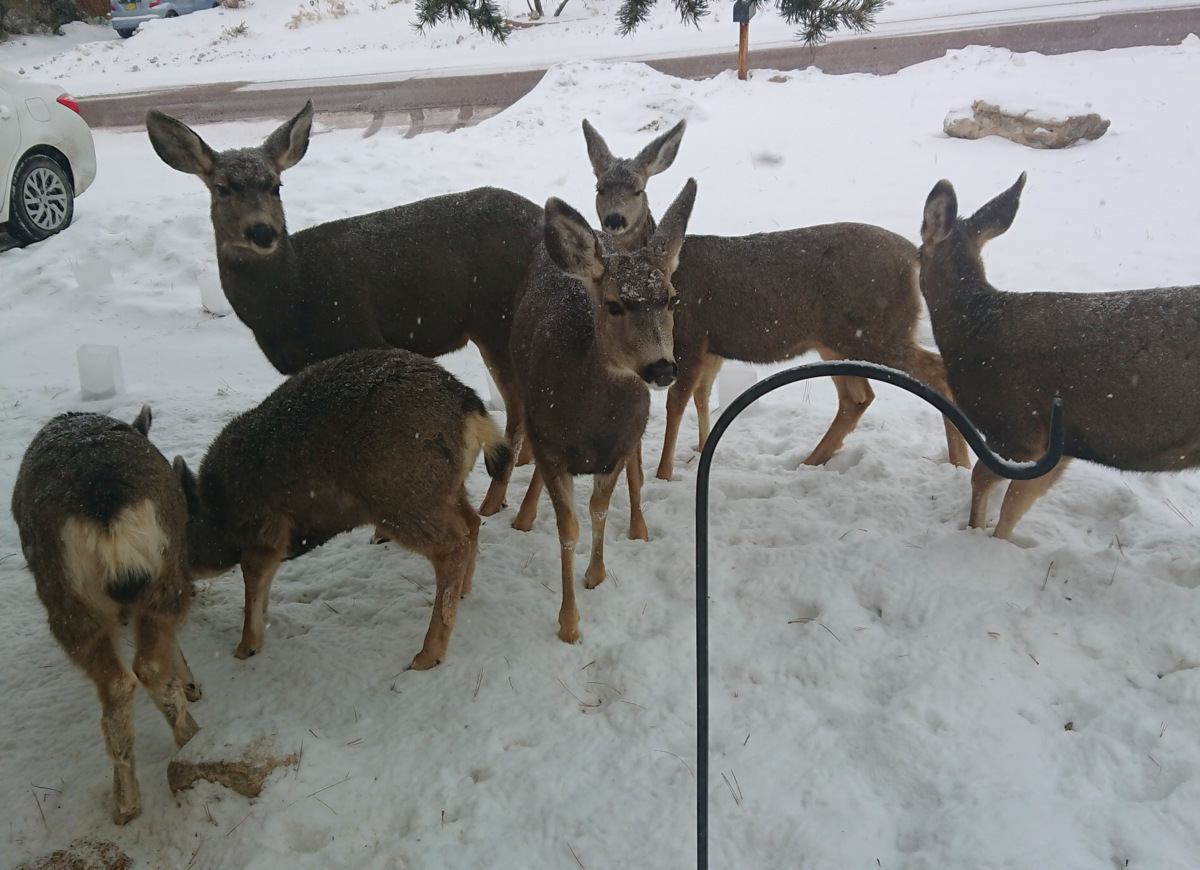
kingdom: Animalia
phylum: Chordata
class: Mammalia
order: Artiodactyla
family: Cervidae
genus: Odocoileus
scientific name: Odocoileus hemionus
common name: Mule deer
